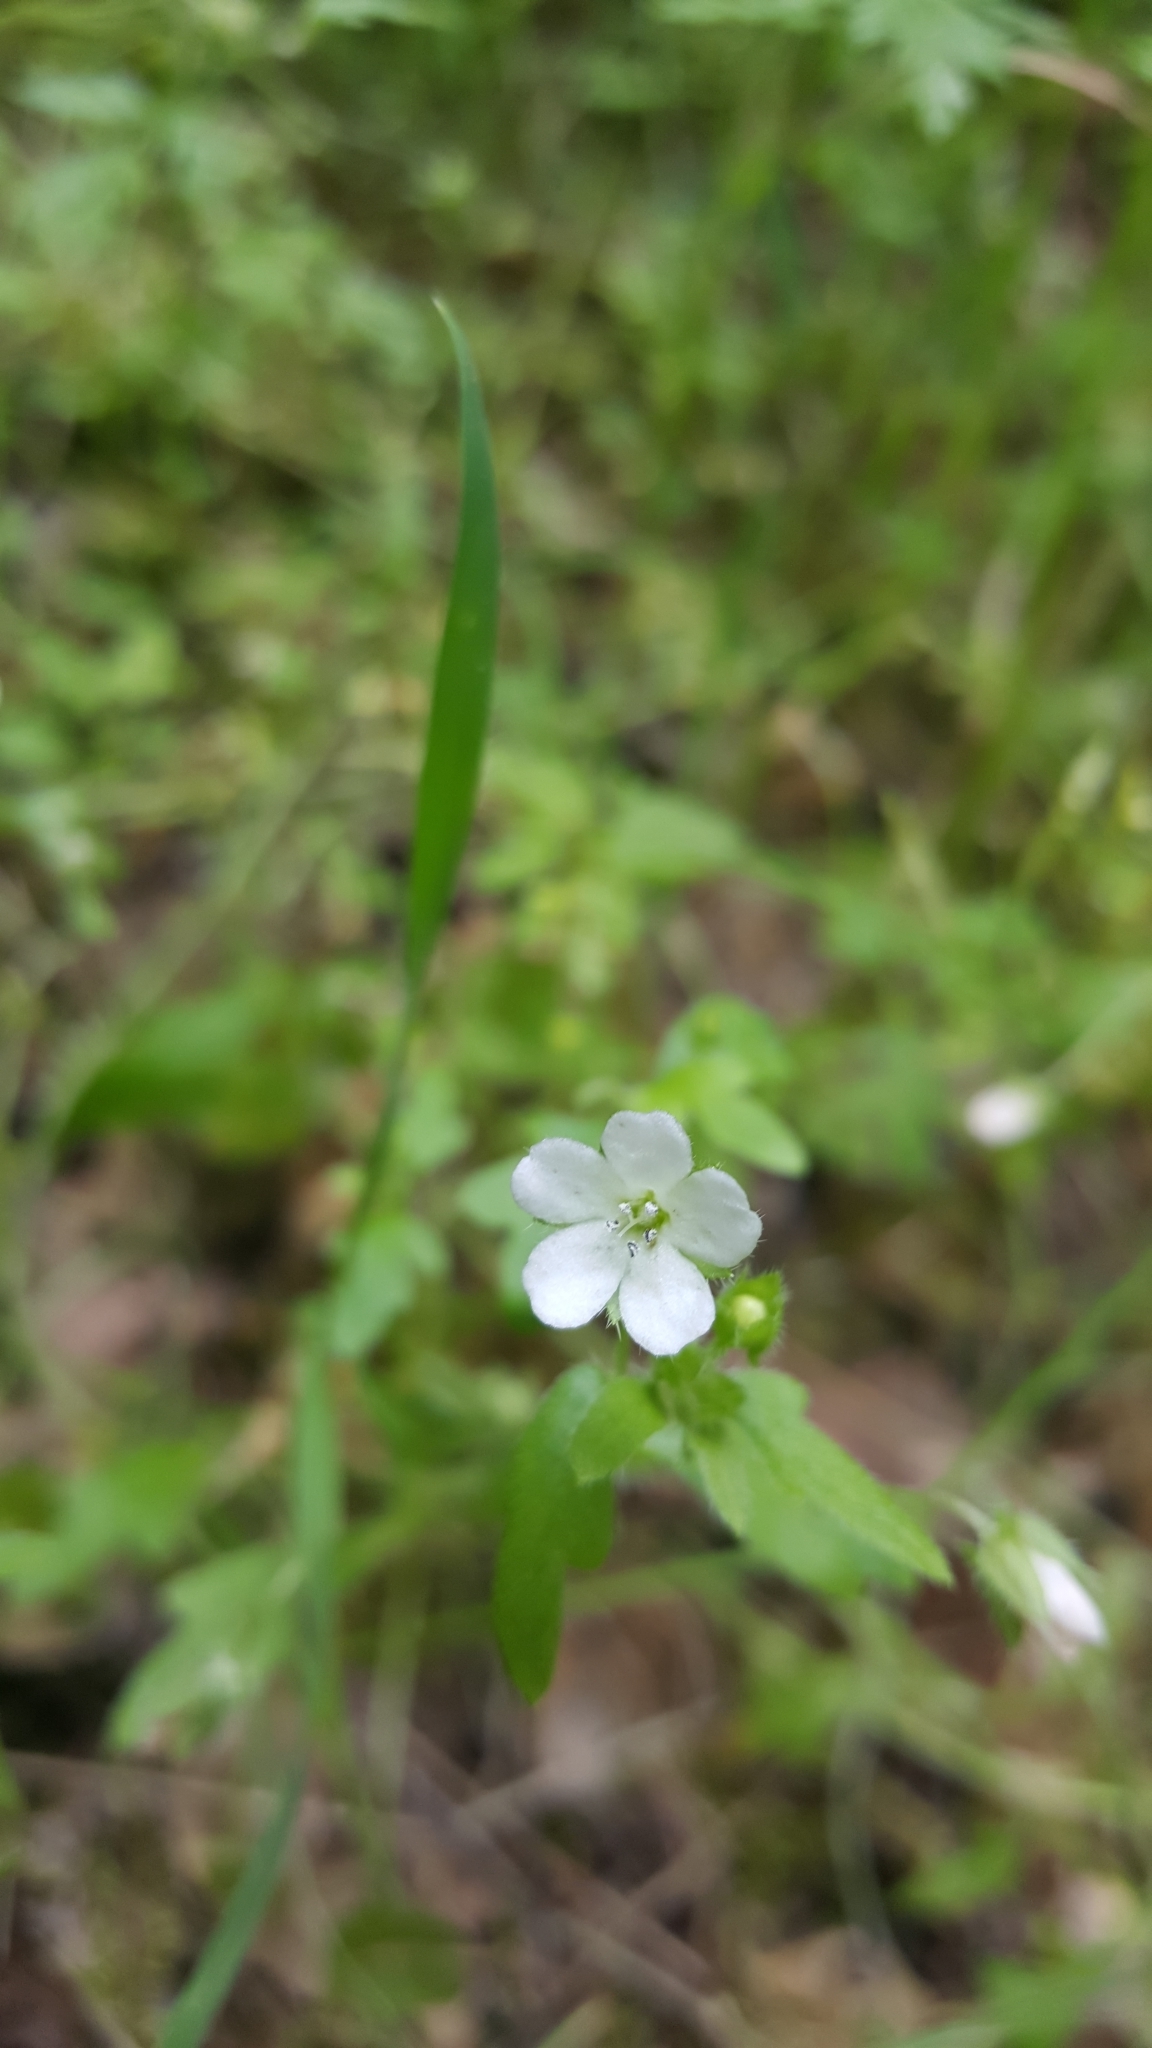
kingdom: Plantae
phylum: Tracheophyta
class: Magnoliopsida
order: Boraginales
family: Hydrophyllaceae
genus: Nemophila
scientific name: Nemophila heterophylla
